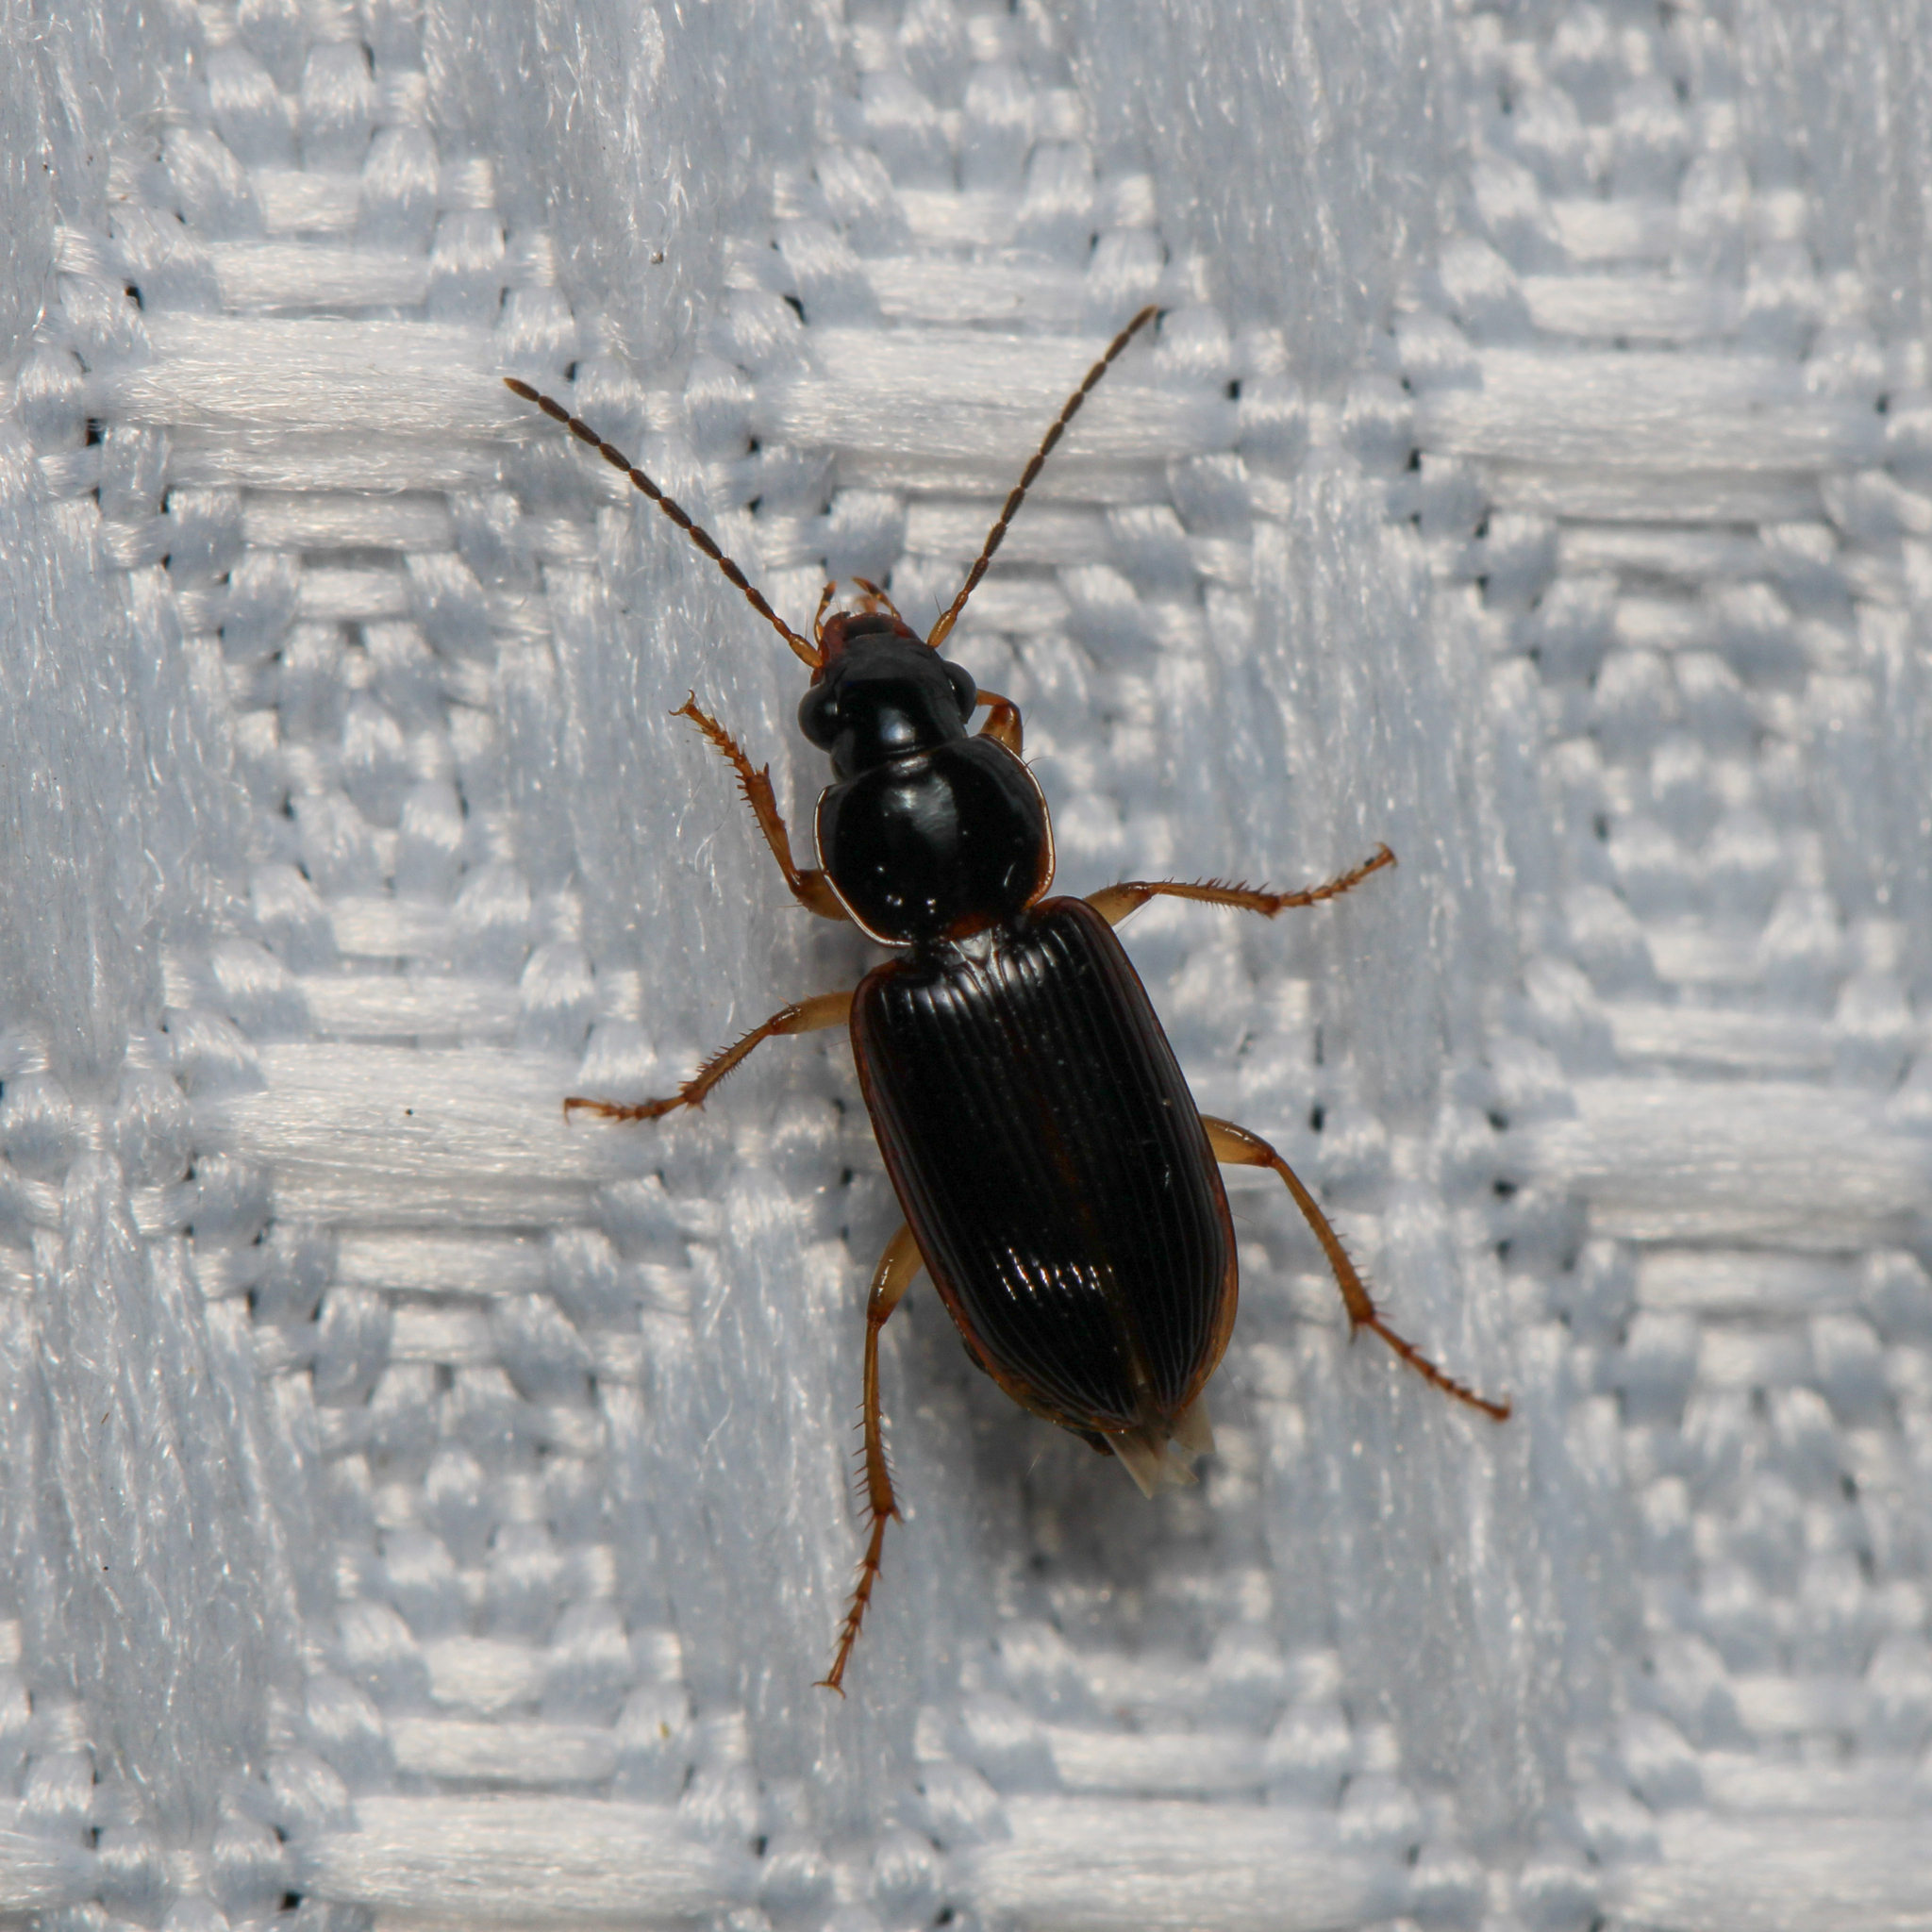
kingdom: Animalia
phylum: Arthropoda
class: Insecta
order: Coleoptera
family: Carabidae
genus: Stenolophus
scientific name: Stenolophus ochropezus
